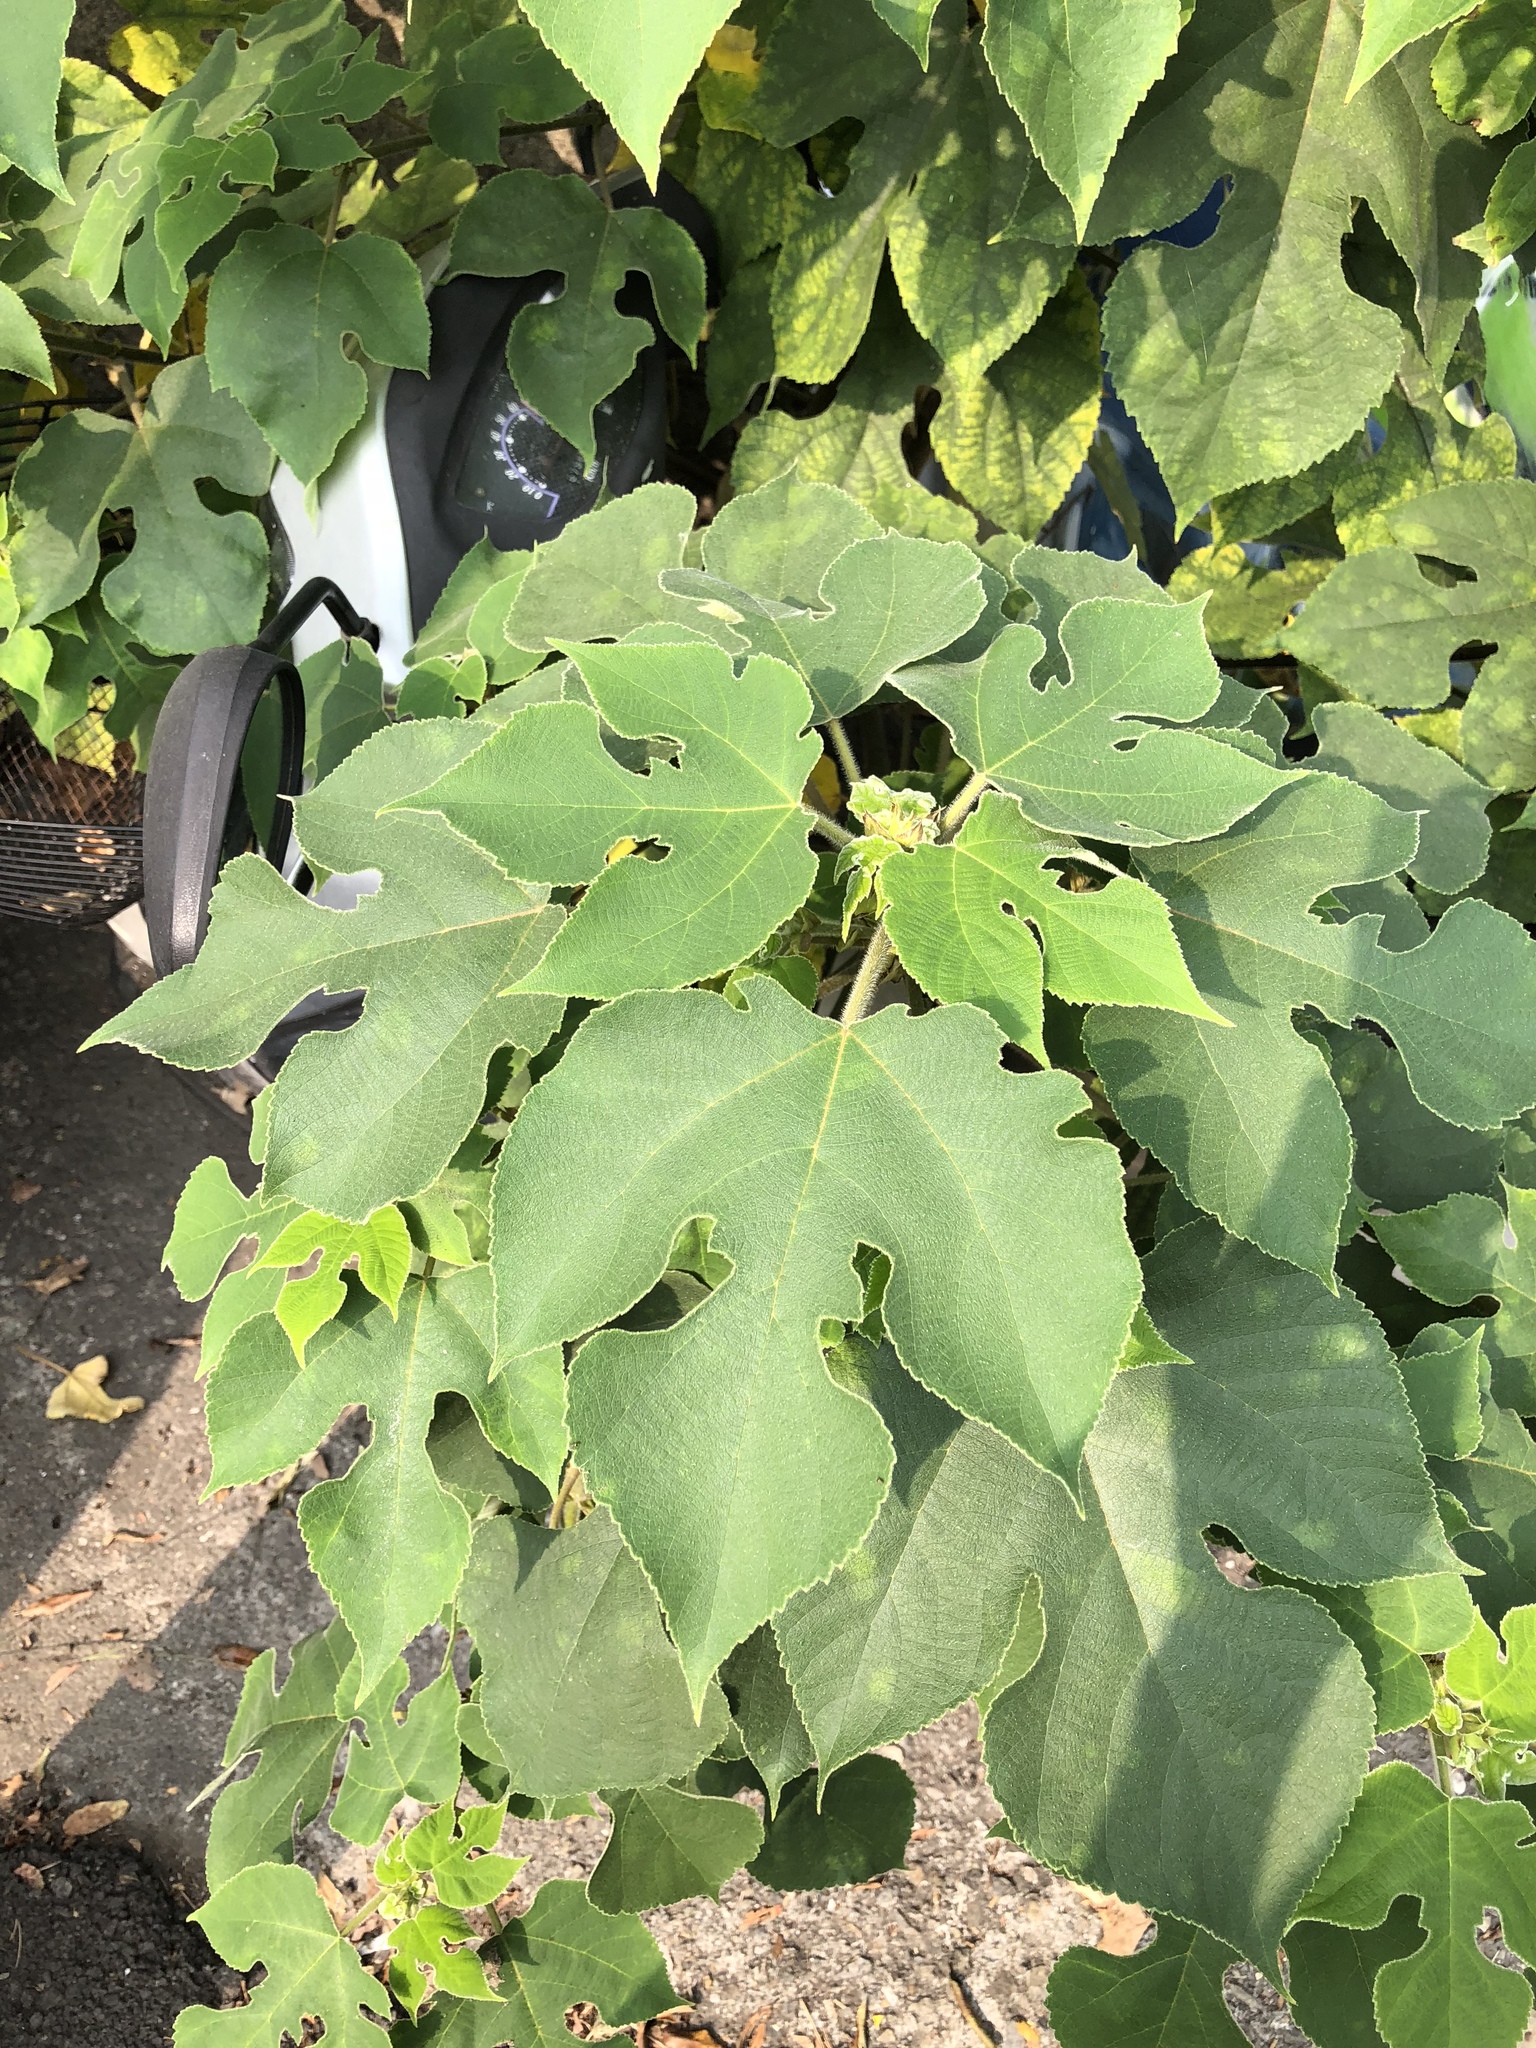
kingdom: Plantae
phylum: Tracheophyta
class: Magnoliopsida
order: Rosales
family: Moraceae
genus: Broussonetia
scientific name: Broussonetia papyrifera
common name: Paper mulberry
